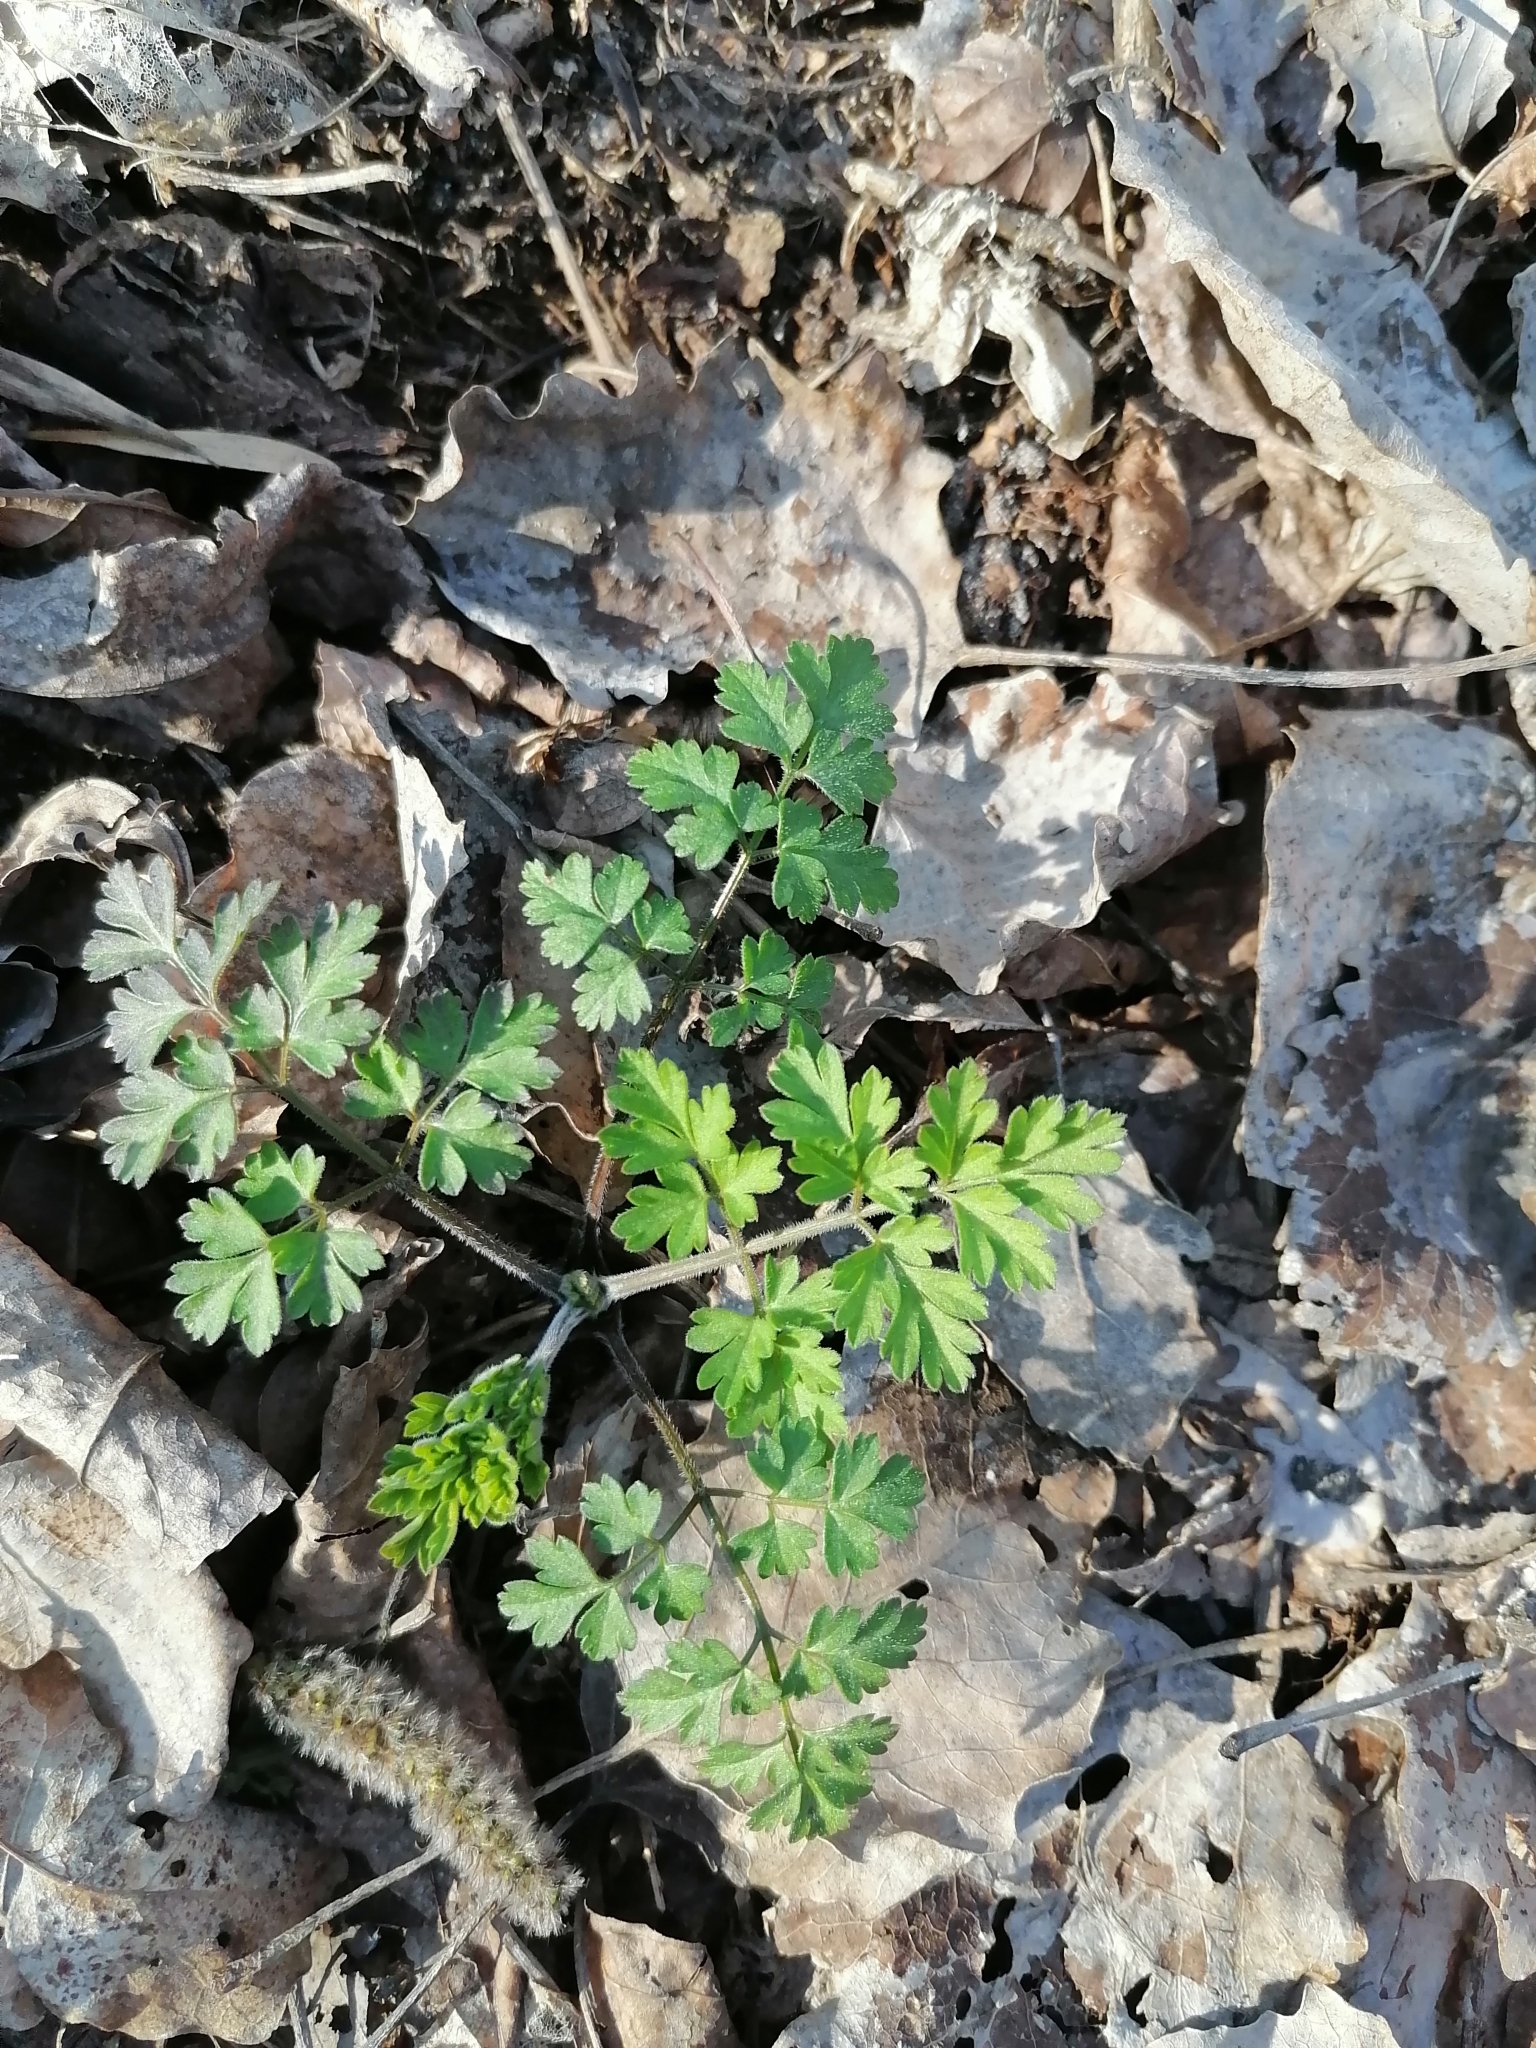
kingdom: Plantae
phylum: Tracheophyta
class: Magnoliopsida
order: Apiales
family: Apiaceae
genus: Chaerophyllum
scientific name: Chaerophyllum temulum
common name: Rough chervil
